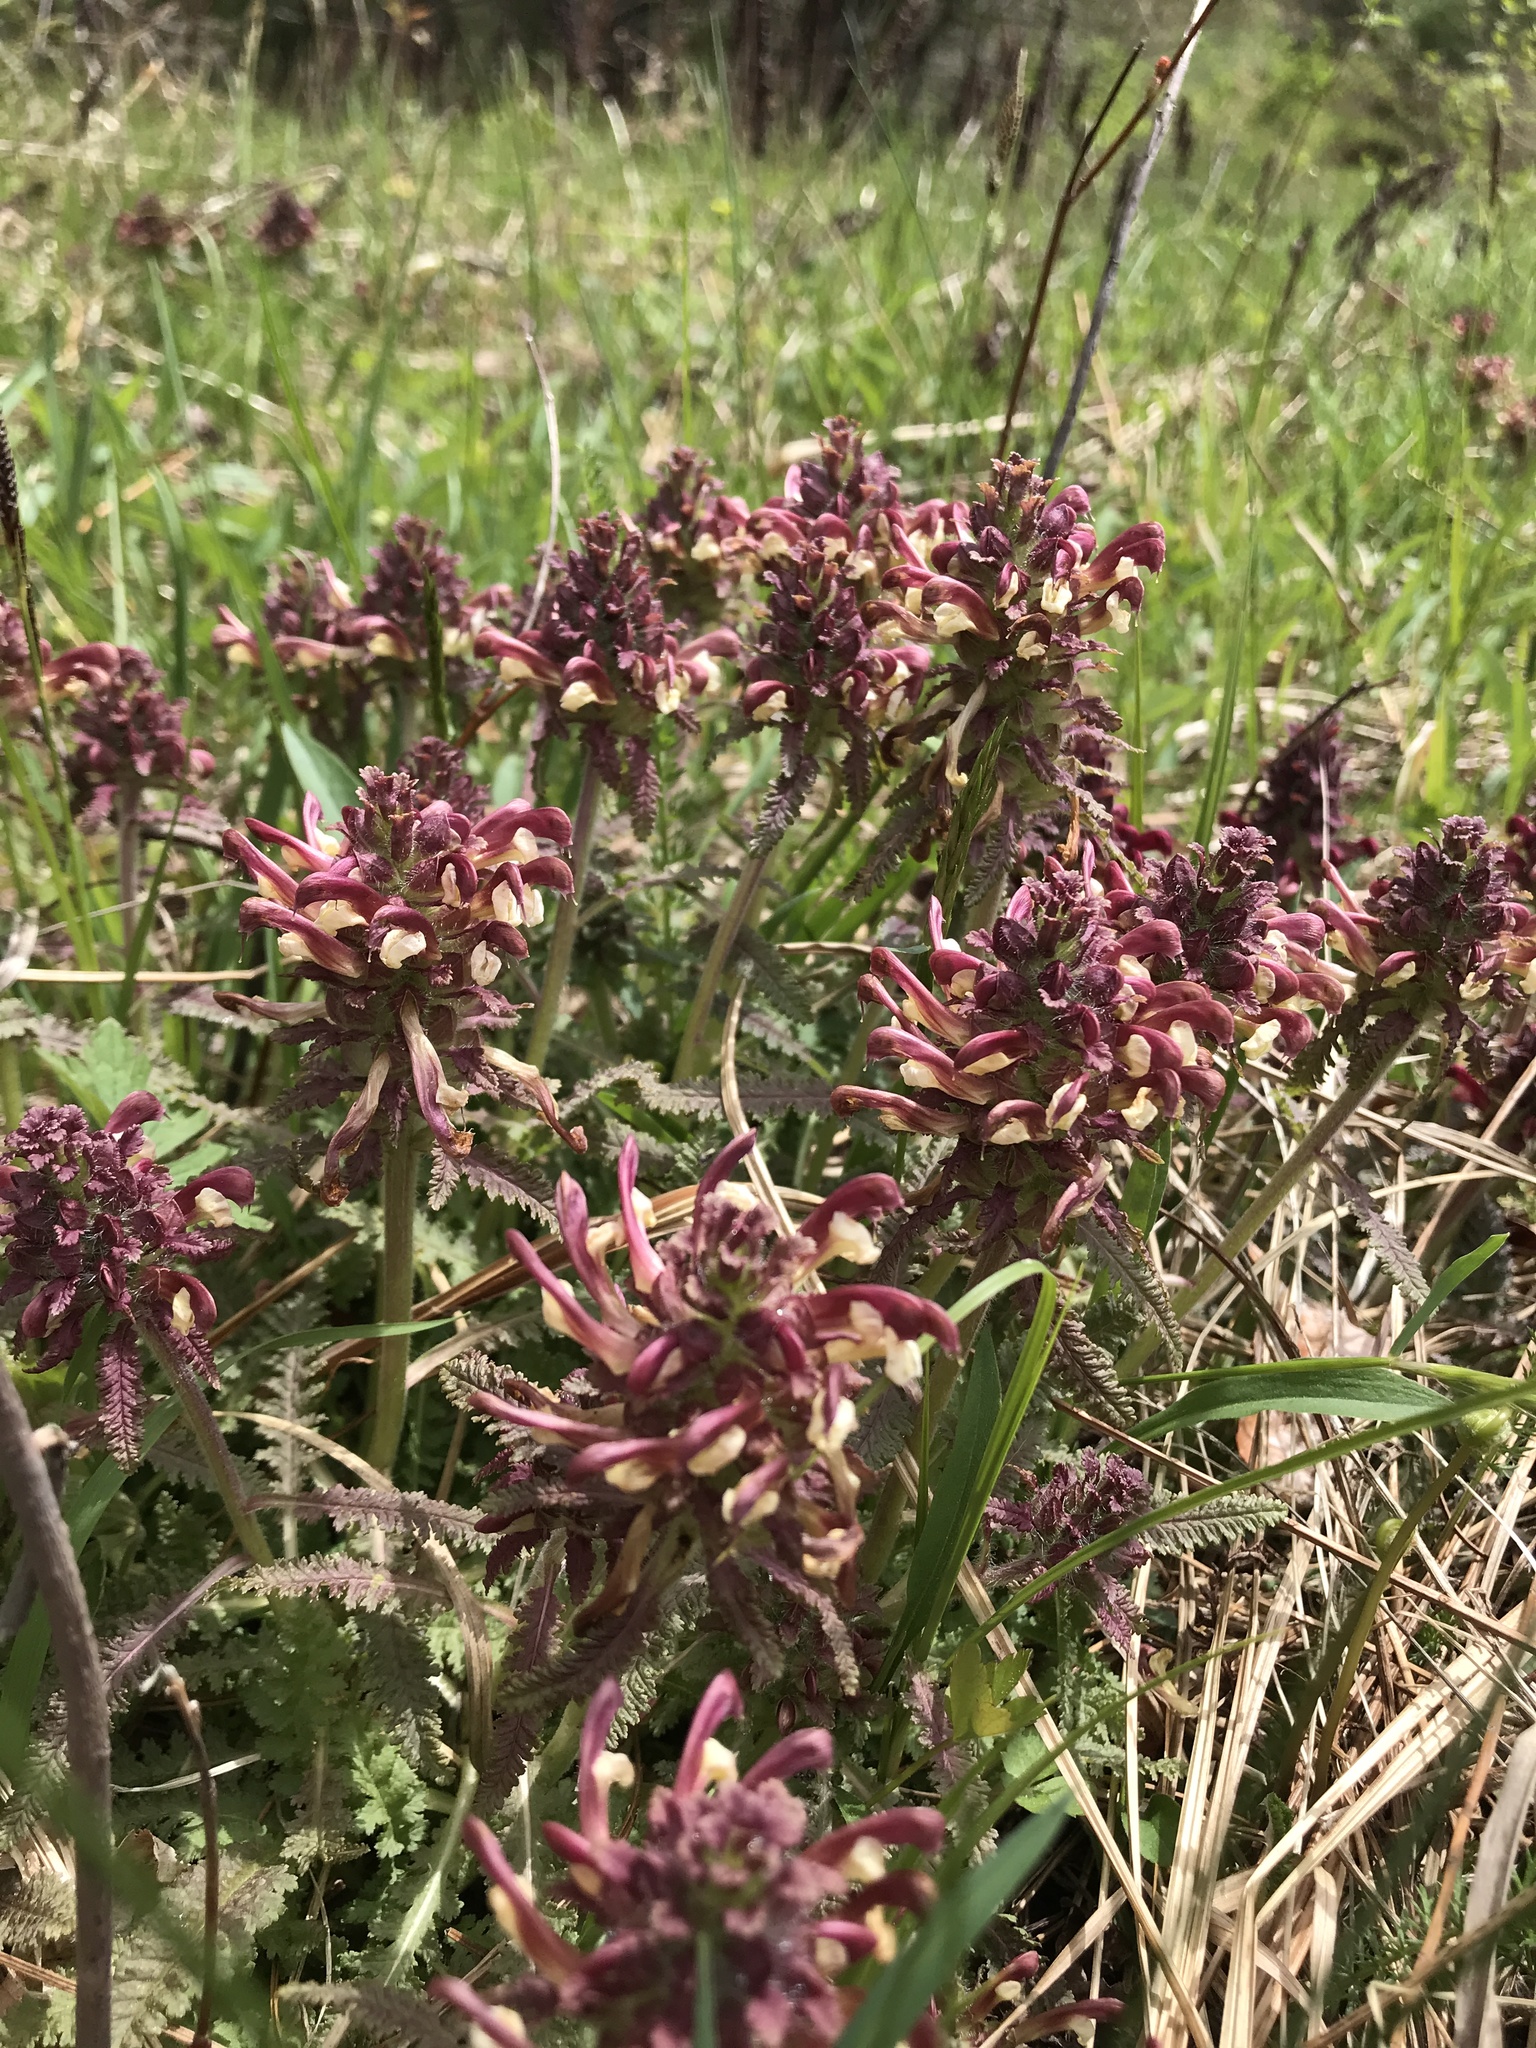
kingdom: Plantae
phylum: Tracheophyta
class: Magnoliopsida
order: Lamiales
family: Orobanchaceae
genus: Pedicularis
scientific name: Pedicularis canadensis
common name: Early lousewort
